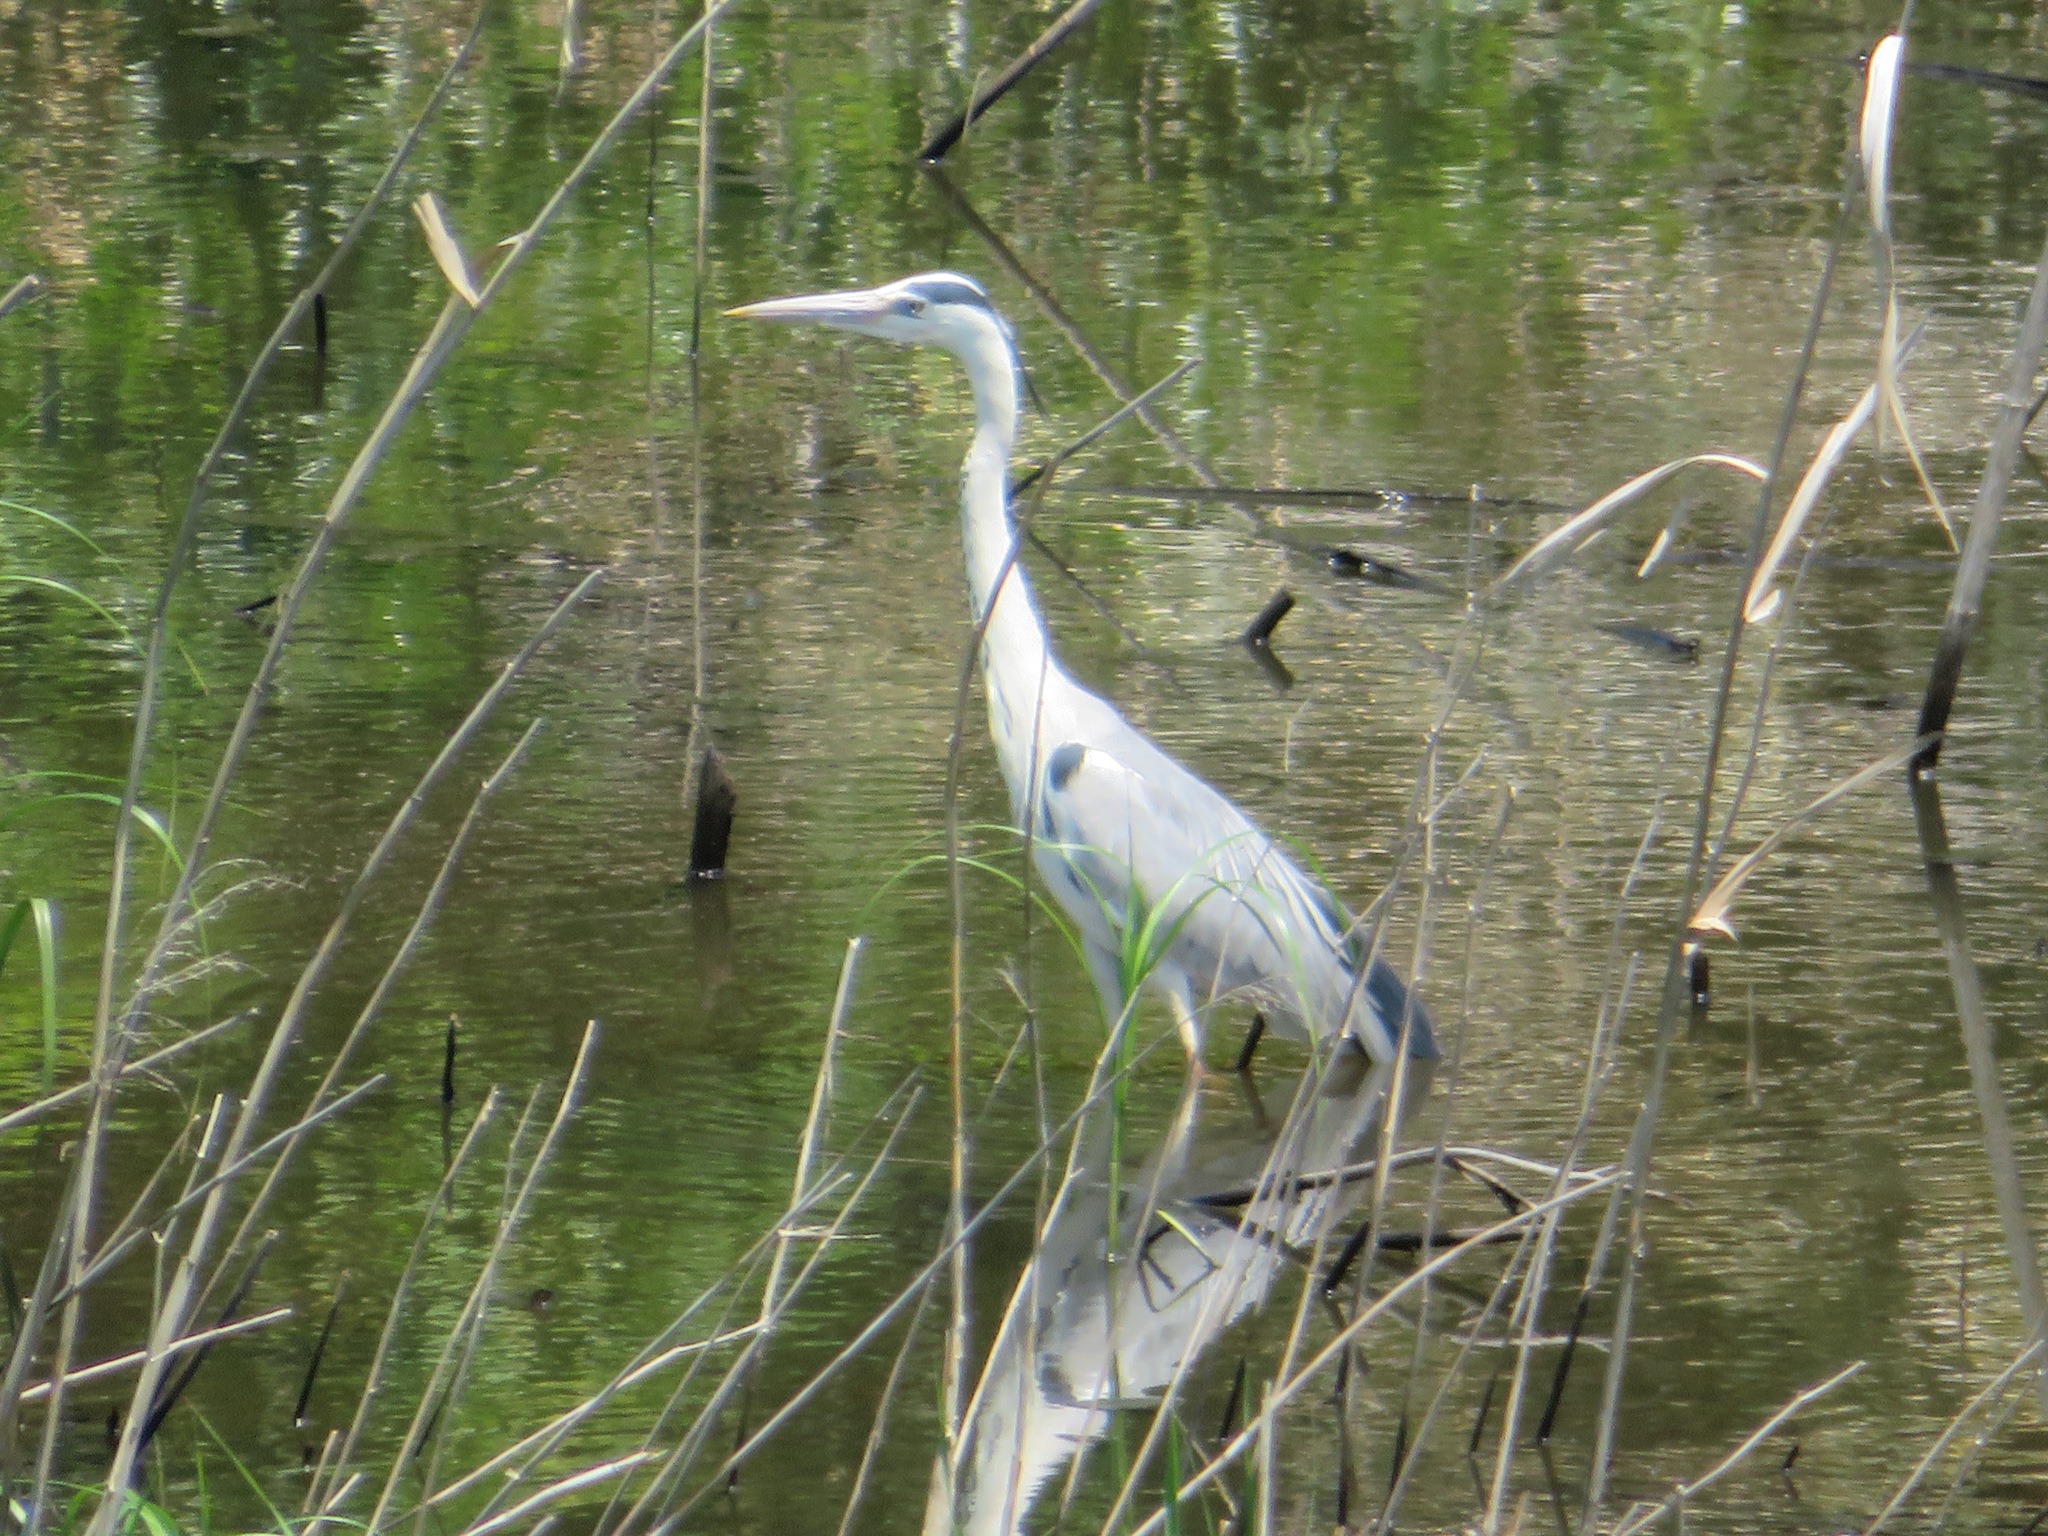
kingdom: Animalia
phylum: Chordata
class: Aves
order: Pelecaniformes
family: Ardeidae
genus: Ardea
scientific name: Ardea cinerea
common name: Grey heron
